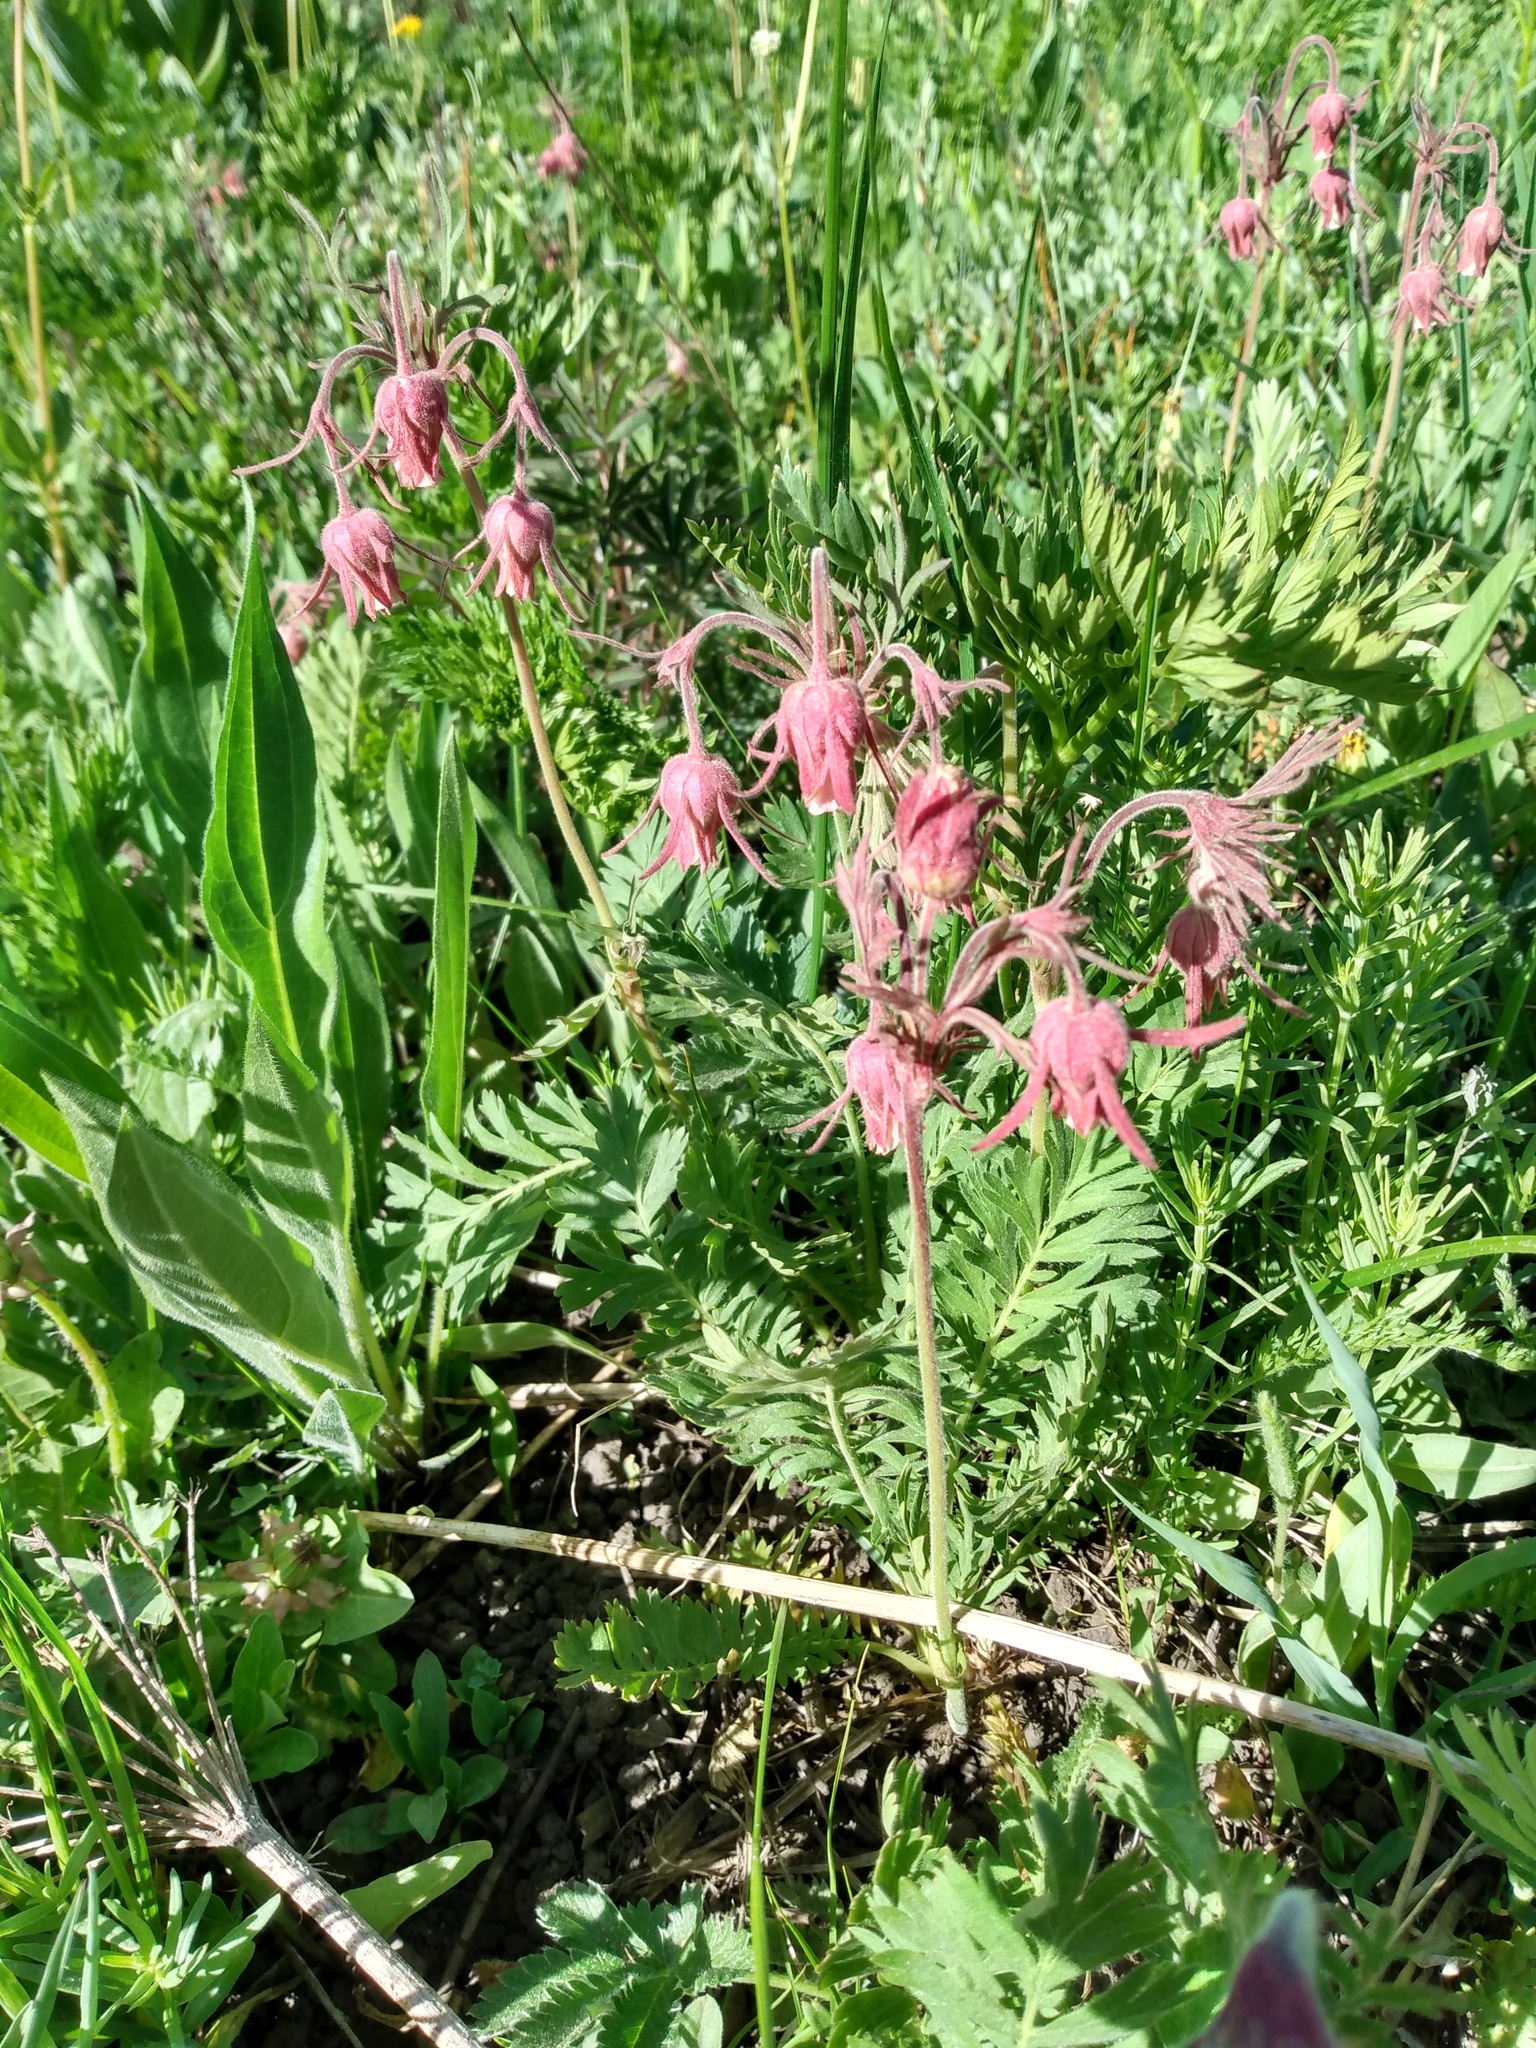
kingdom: Plantae
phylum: Tracheophyta
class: Magnoliopsida
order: Rosales
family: Rosaceae
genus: Geum
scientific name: Geum triflorum
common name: Old man's whiskers
